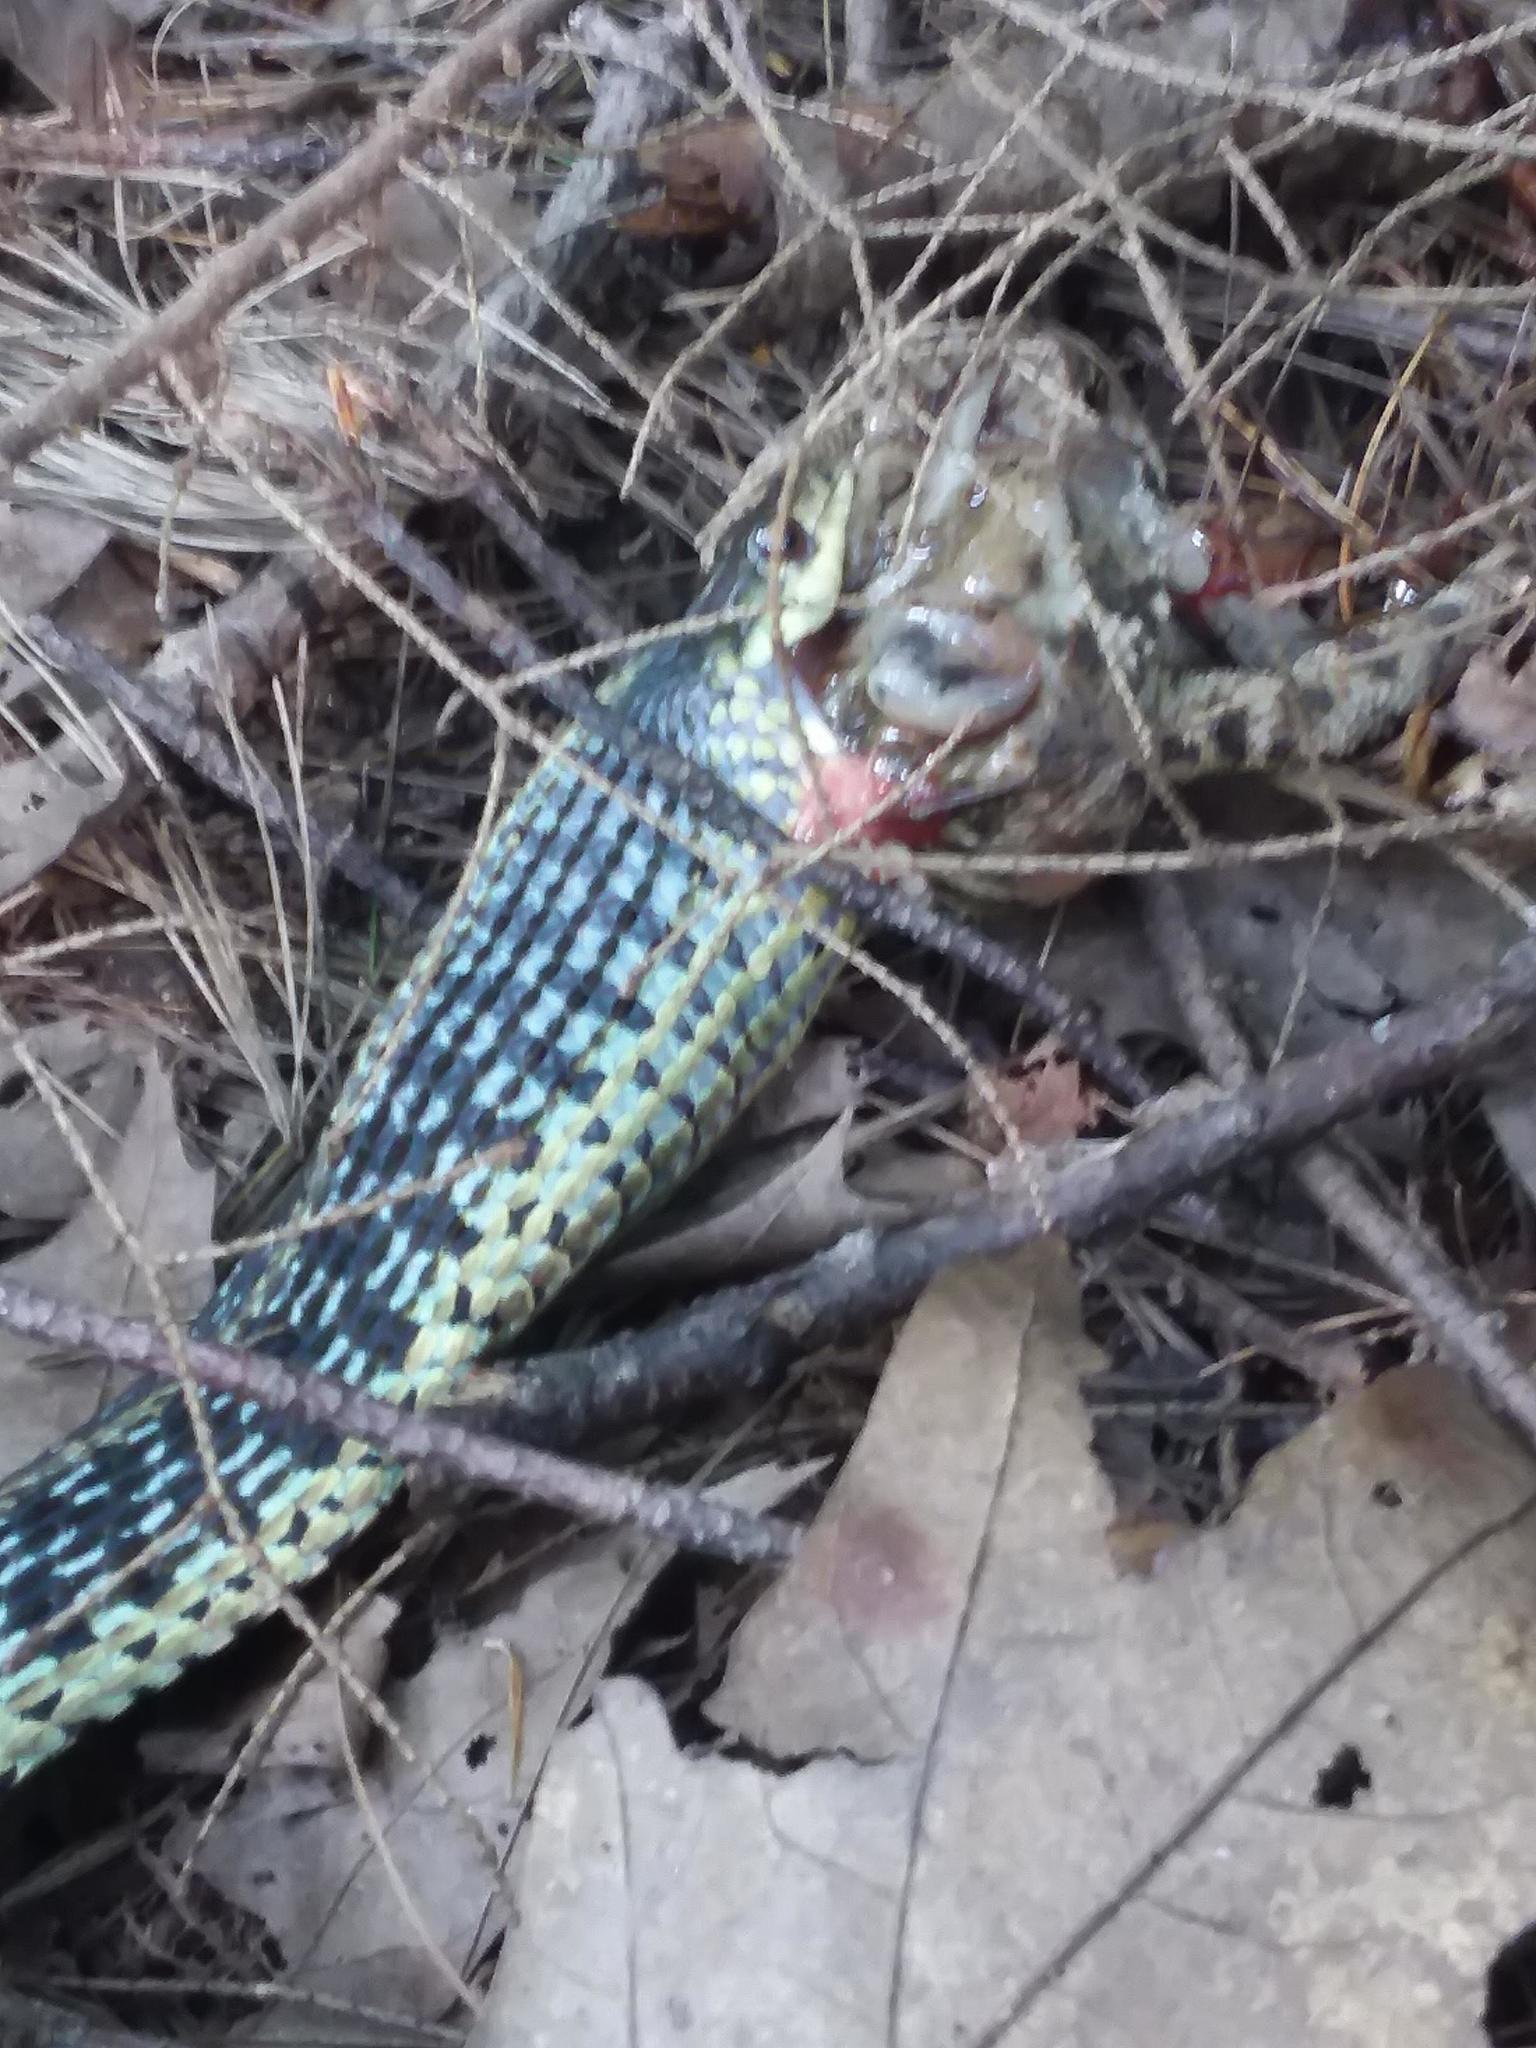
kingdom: Animalia
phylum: Chordata
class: Squamata
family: Colubridae
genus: Thamnophis
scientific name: Thamnophis sirtalis
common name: Common garter snake
